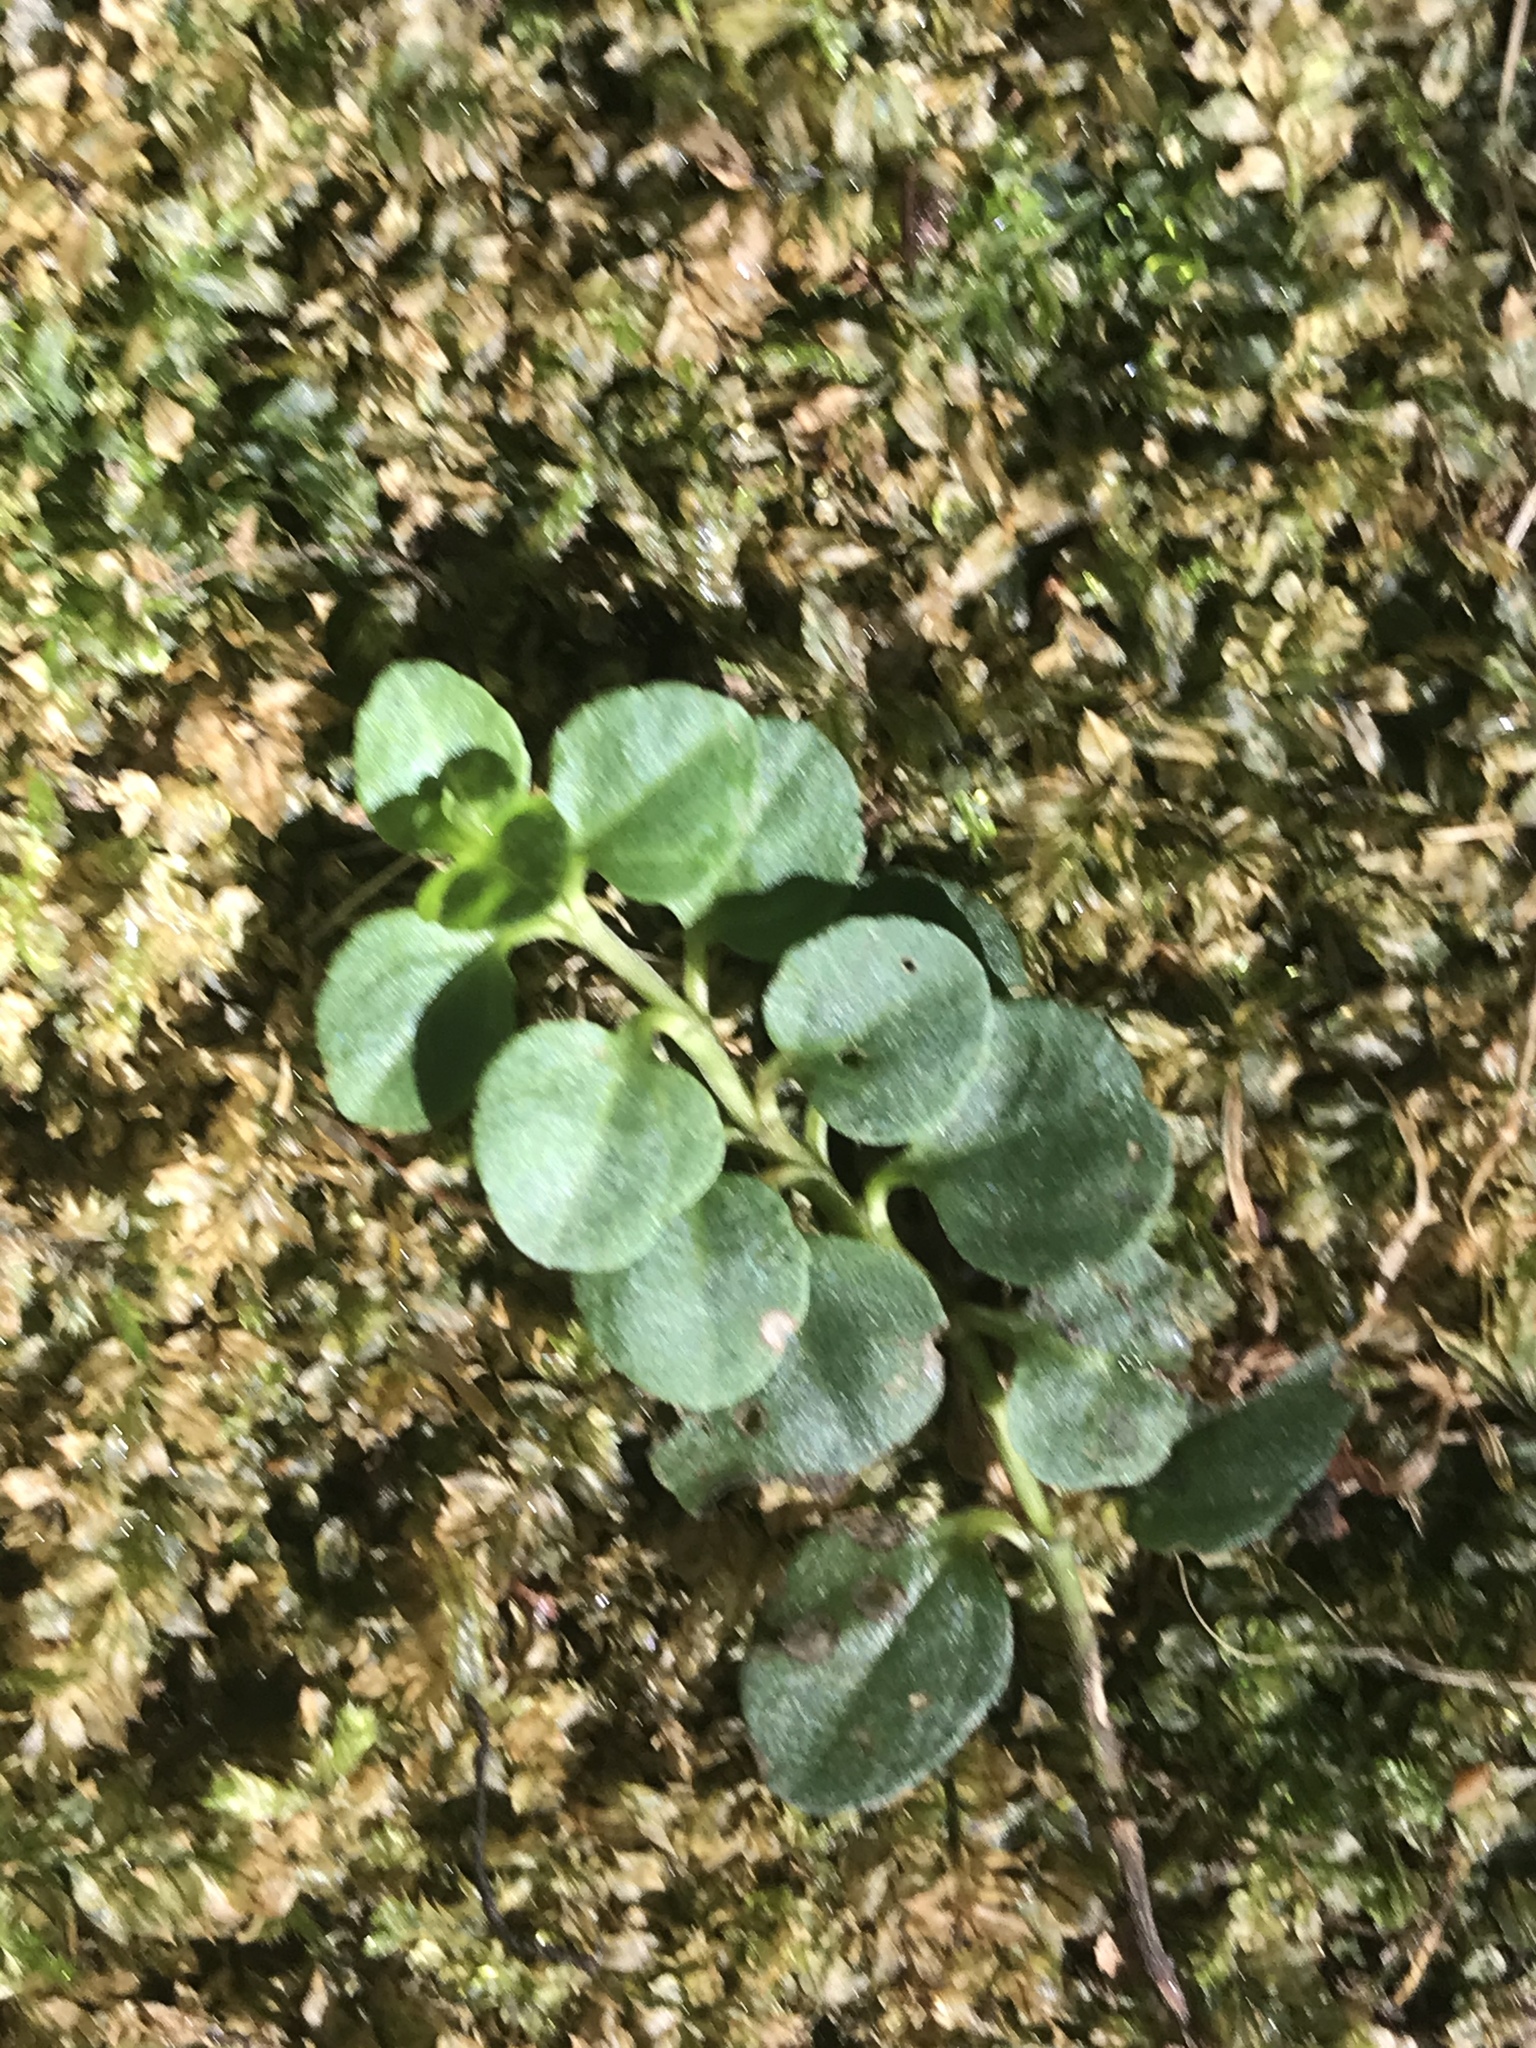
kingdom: Plantae
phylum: Tracheophyta
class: Magnoliopsida
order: Lamiales
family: Plantaginaceae
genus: Veronica
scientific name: Veronica serpyllifolia
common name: Thyme-leaved speedwell
